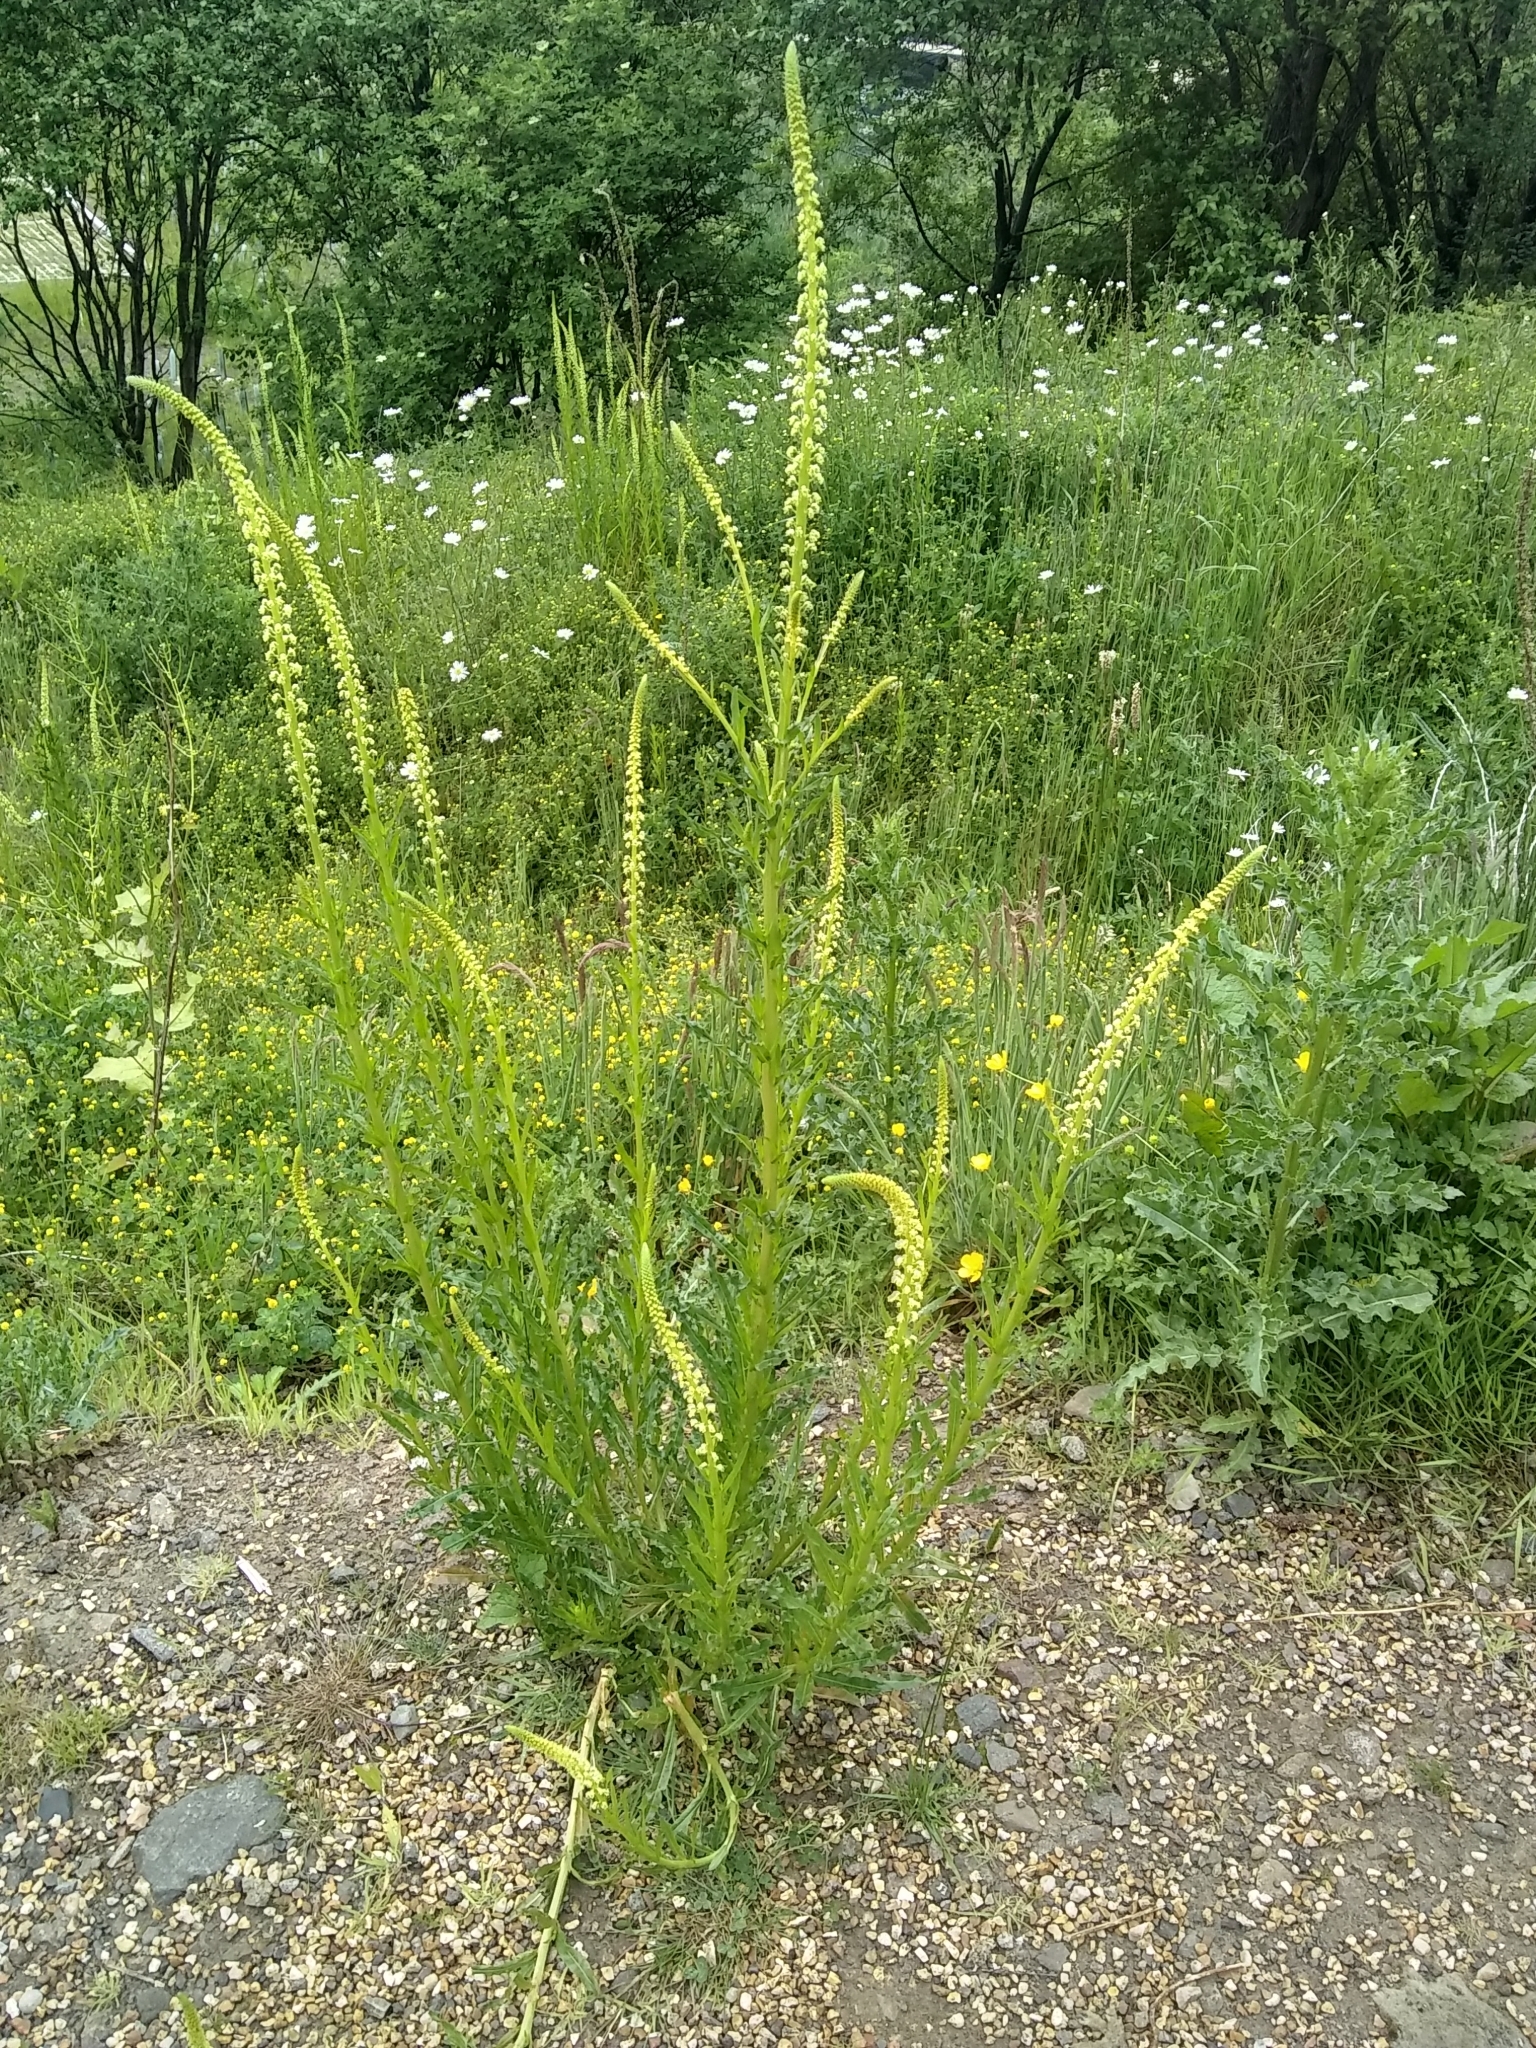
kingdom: Plantae
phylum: Tracheophyta
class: Magnoliopsida
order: Brassicales
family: Resedaceae
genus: Reseda
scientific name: Reseda luteola
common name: Weld
